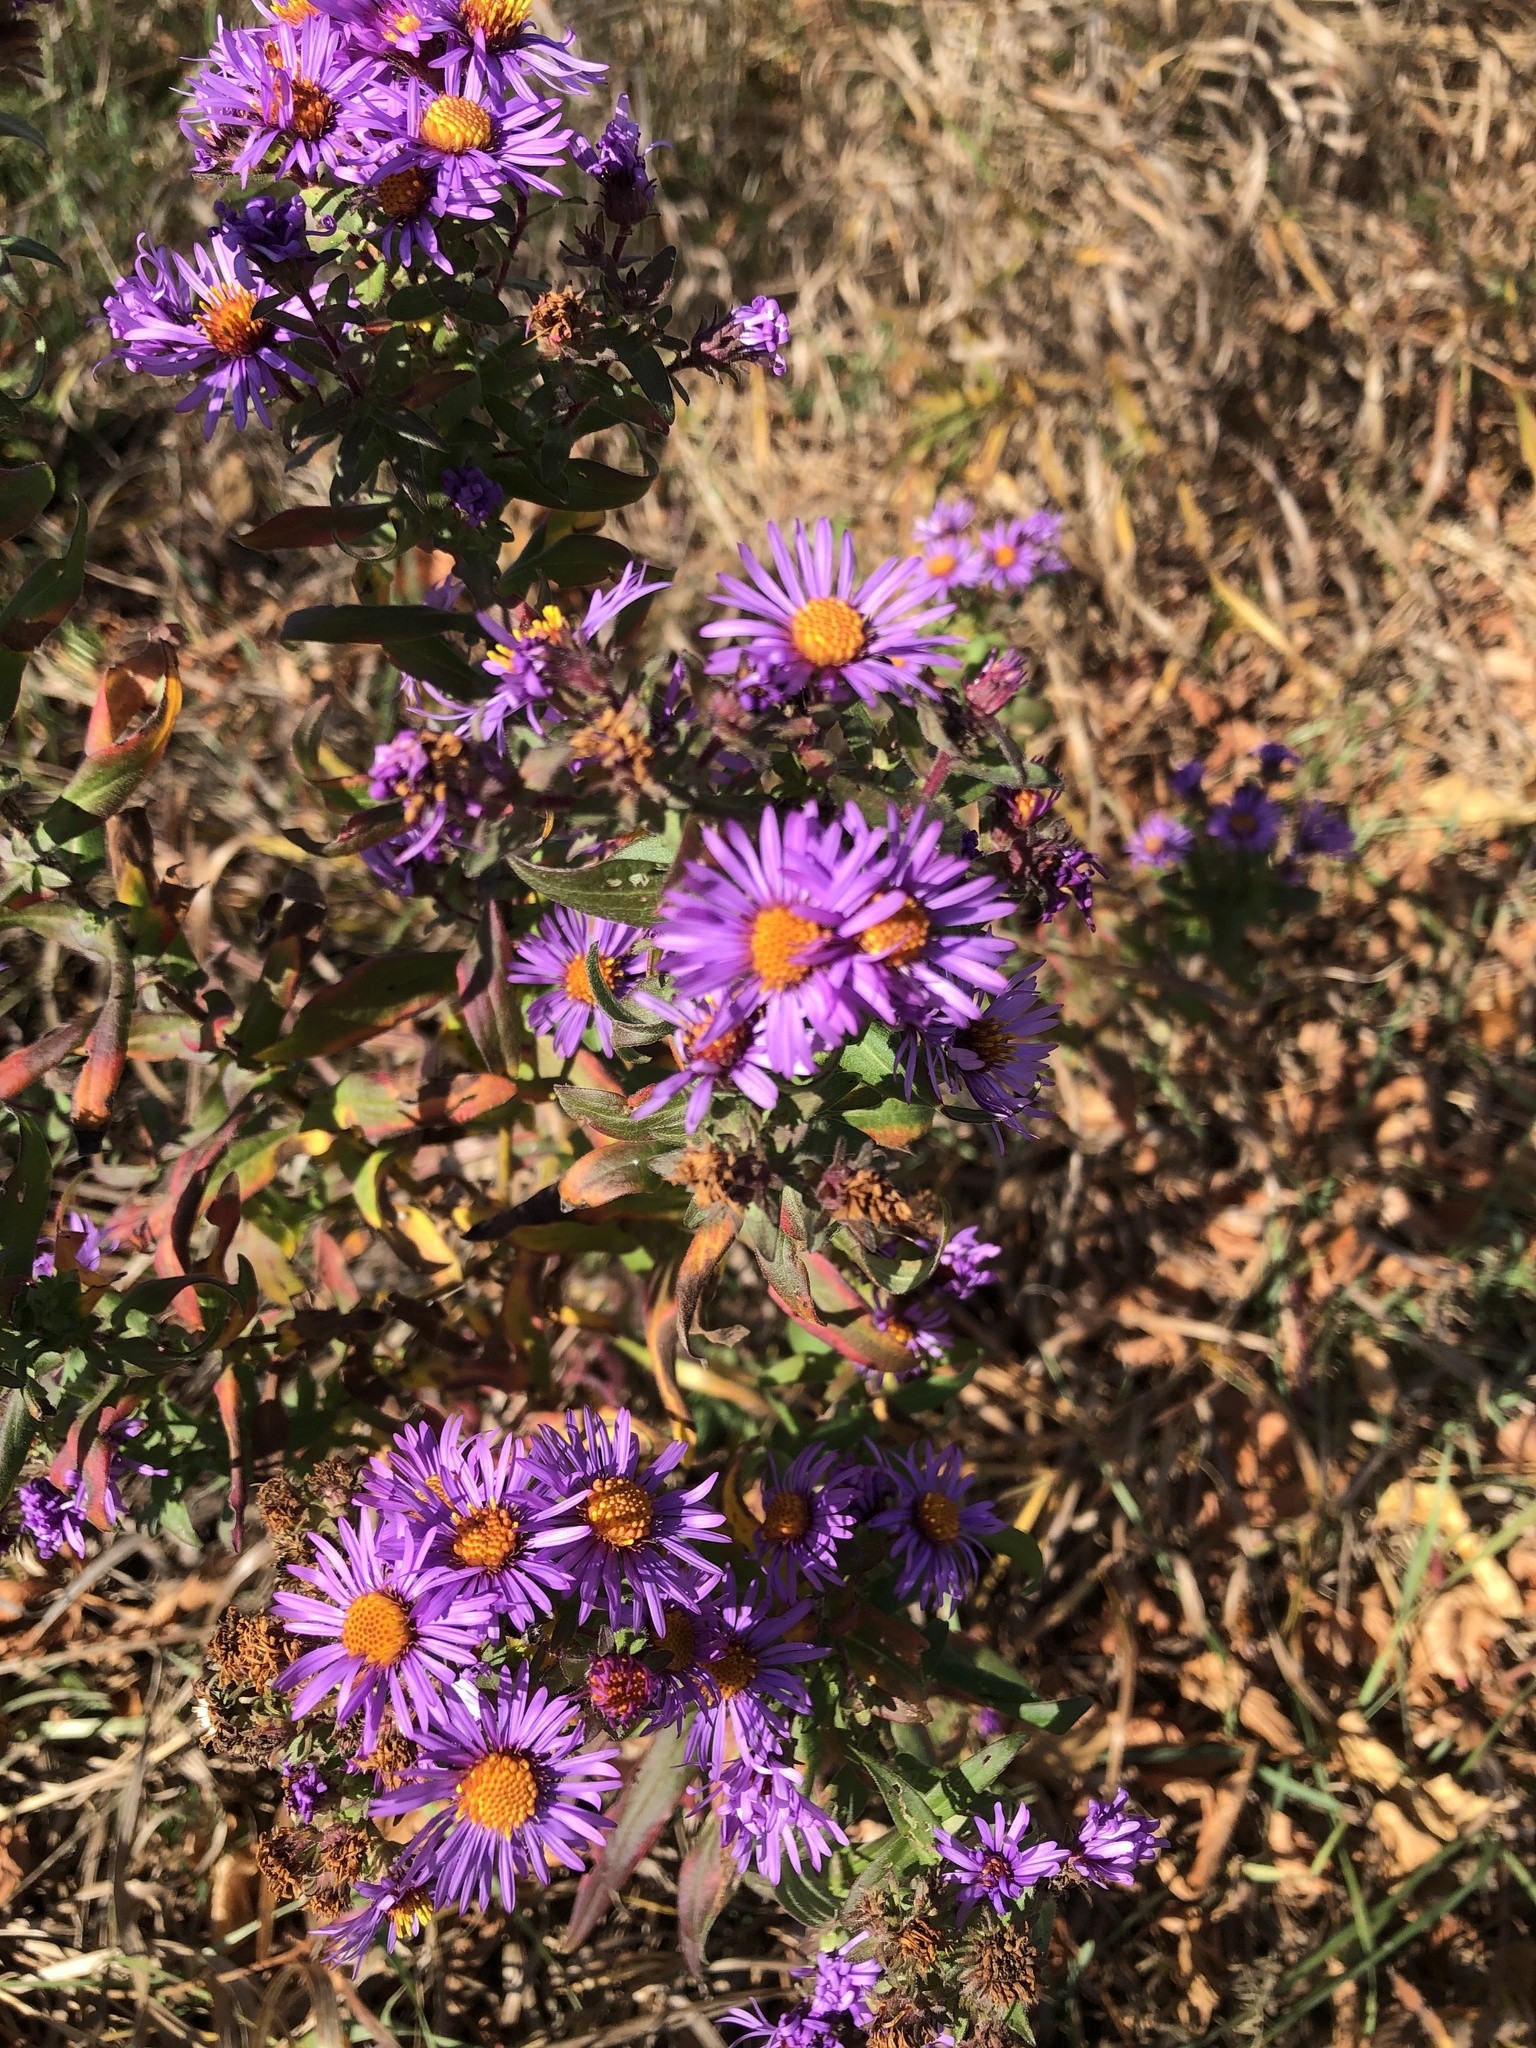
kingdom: Plantae
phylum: Tracheophyta
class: Magnoliopsida
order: Asterales
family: Asteraceae
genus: Symphyotrichum
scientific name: Symphyotrichum novae-angliae
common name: Michaelmas daisy
